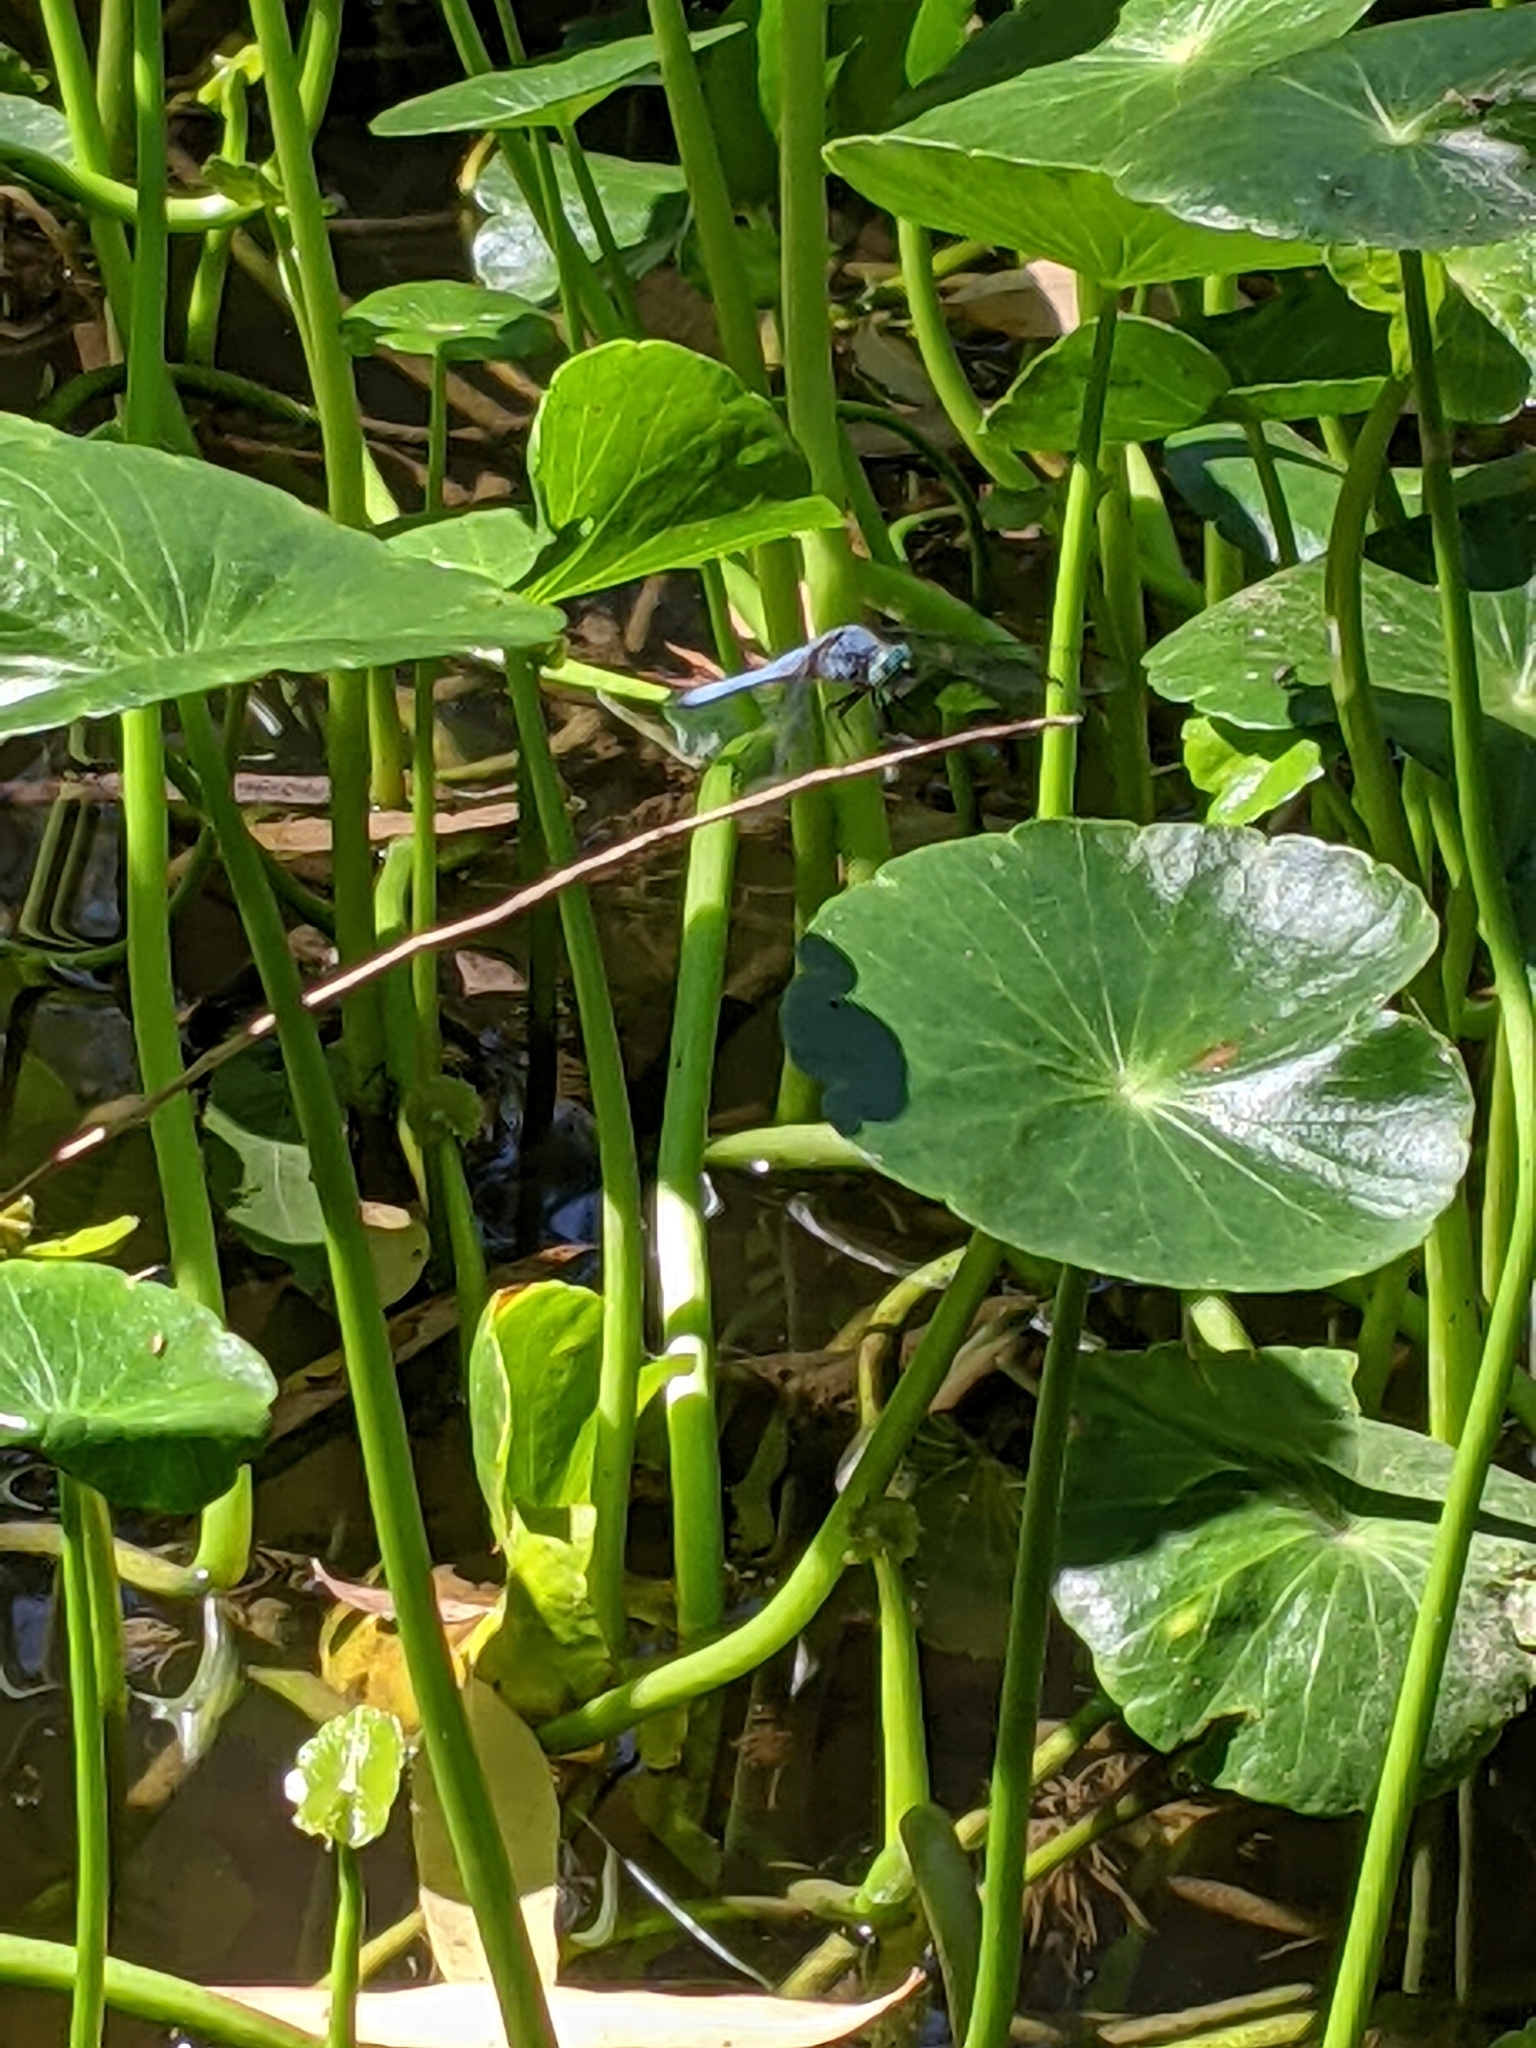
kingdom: Animalia
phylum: Arthropoda
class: Insecta
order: Odonata
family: Libellulidae
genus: Pachydiplax
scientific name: Pachydiplax longipennis
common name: Blue dasher
